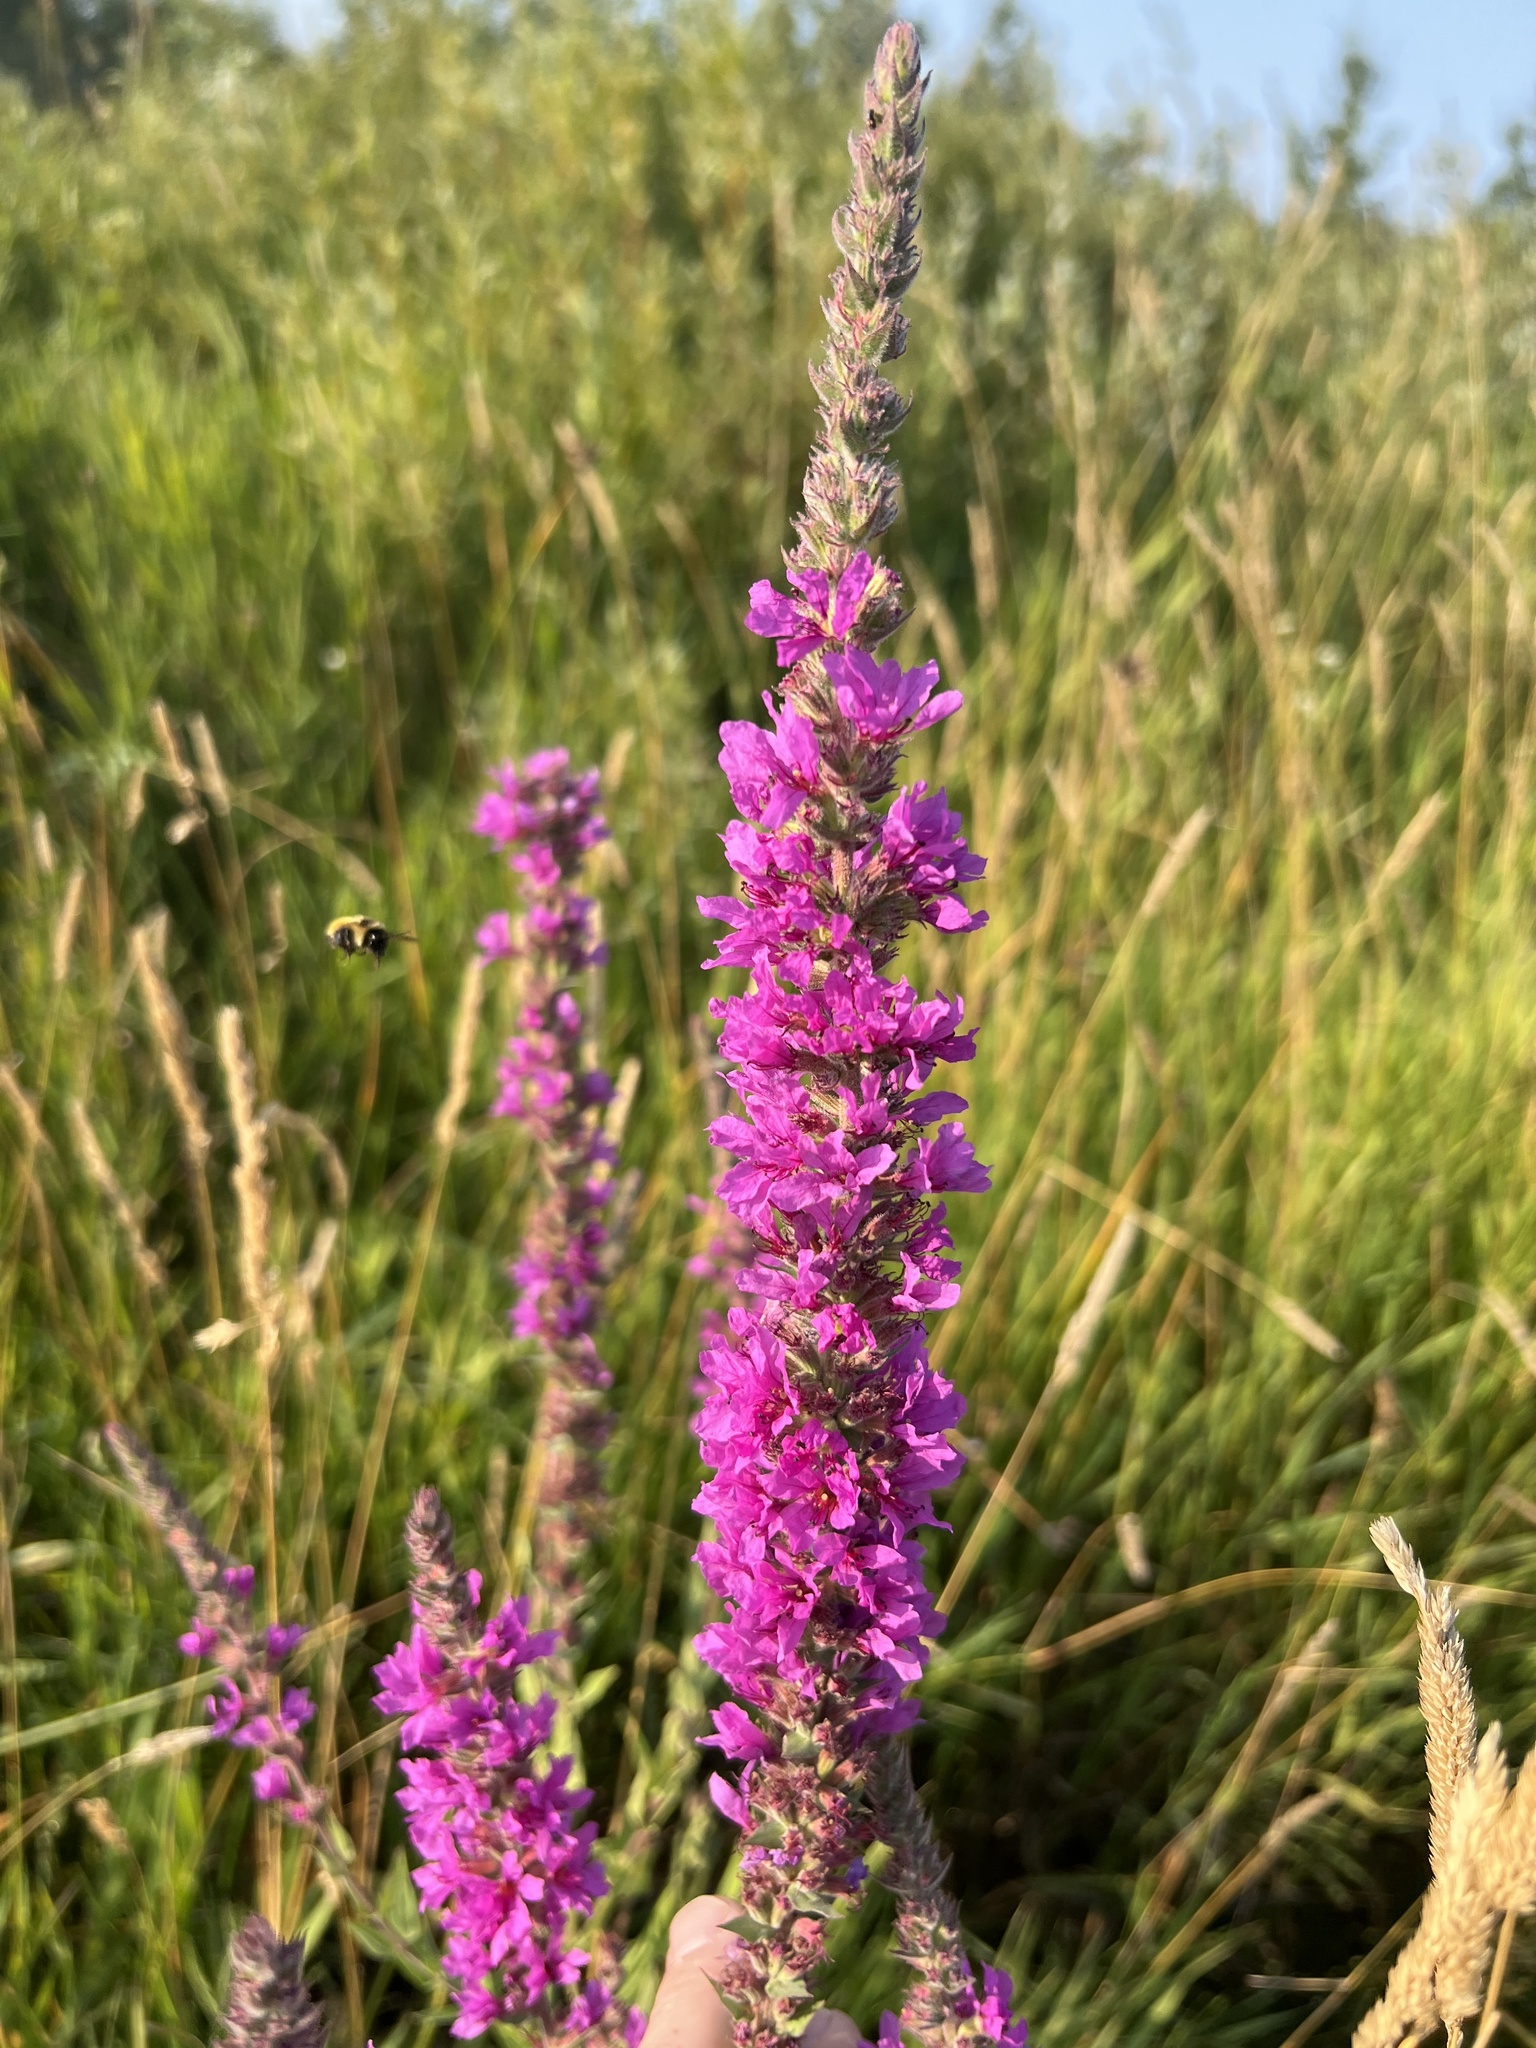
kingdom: Plantae
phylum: Tracheophyta
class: Magnoliopsida
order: Myrtales
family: Lythraceae
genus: Lythrum
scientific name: Lythrum salicaria
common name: Purple loosestrife
